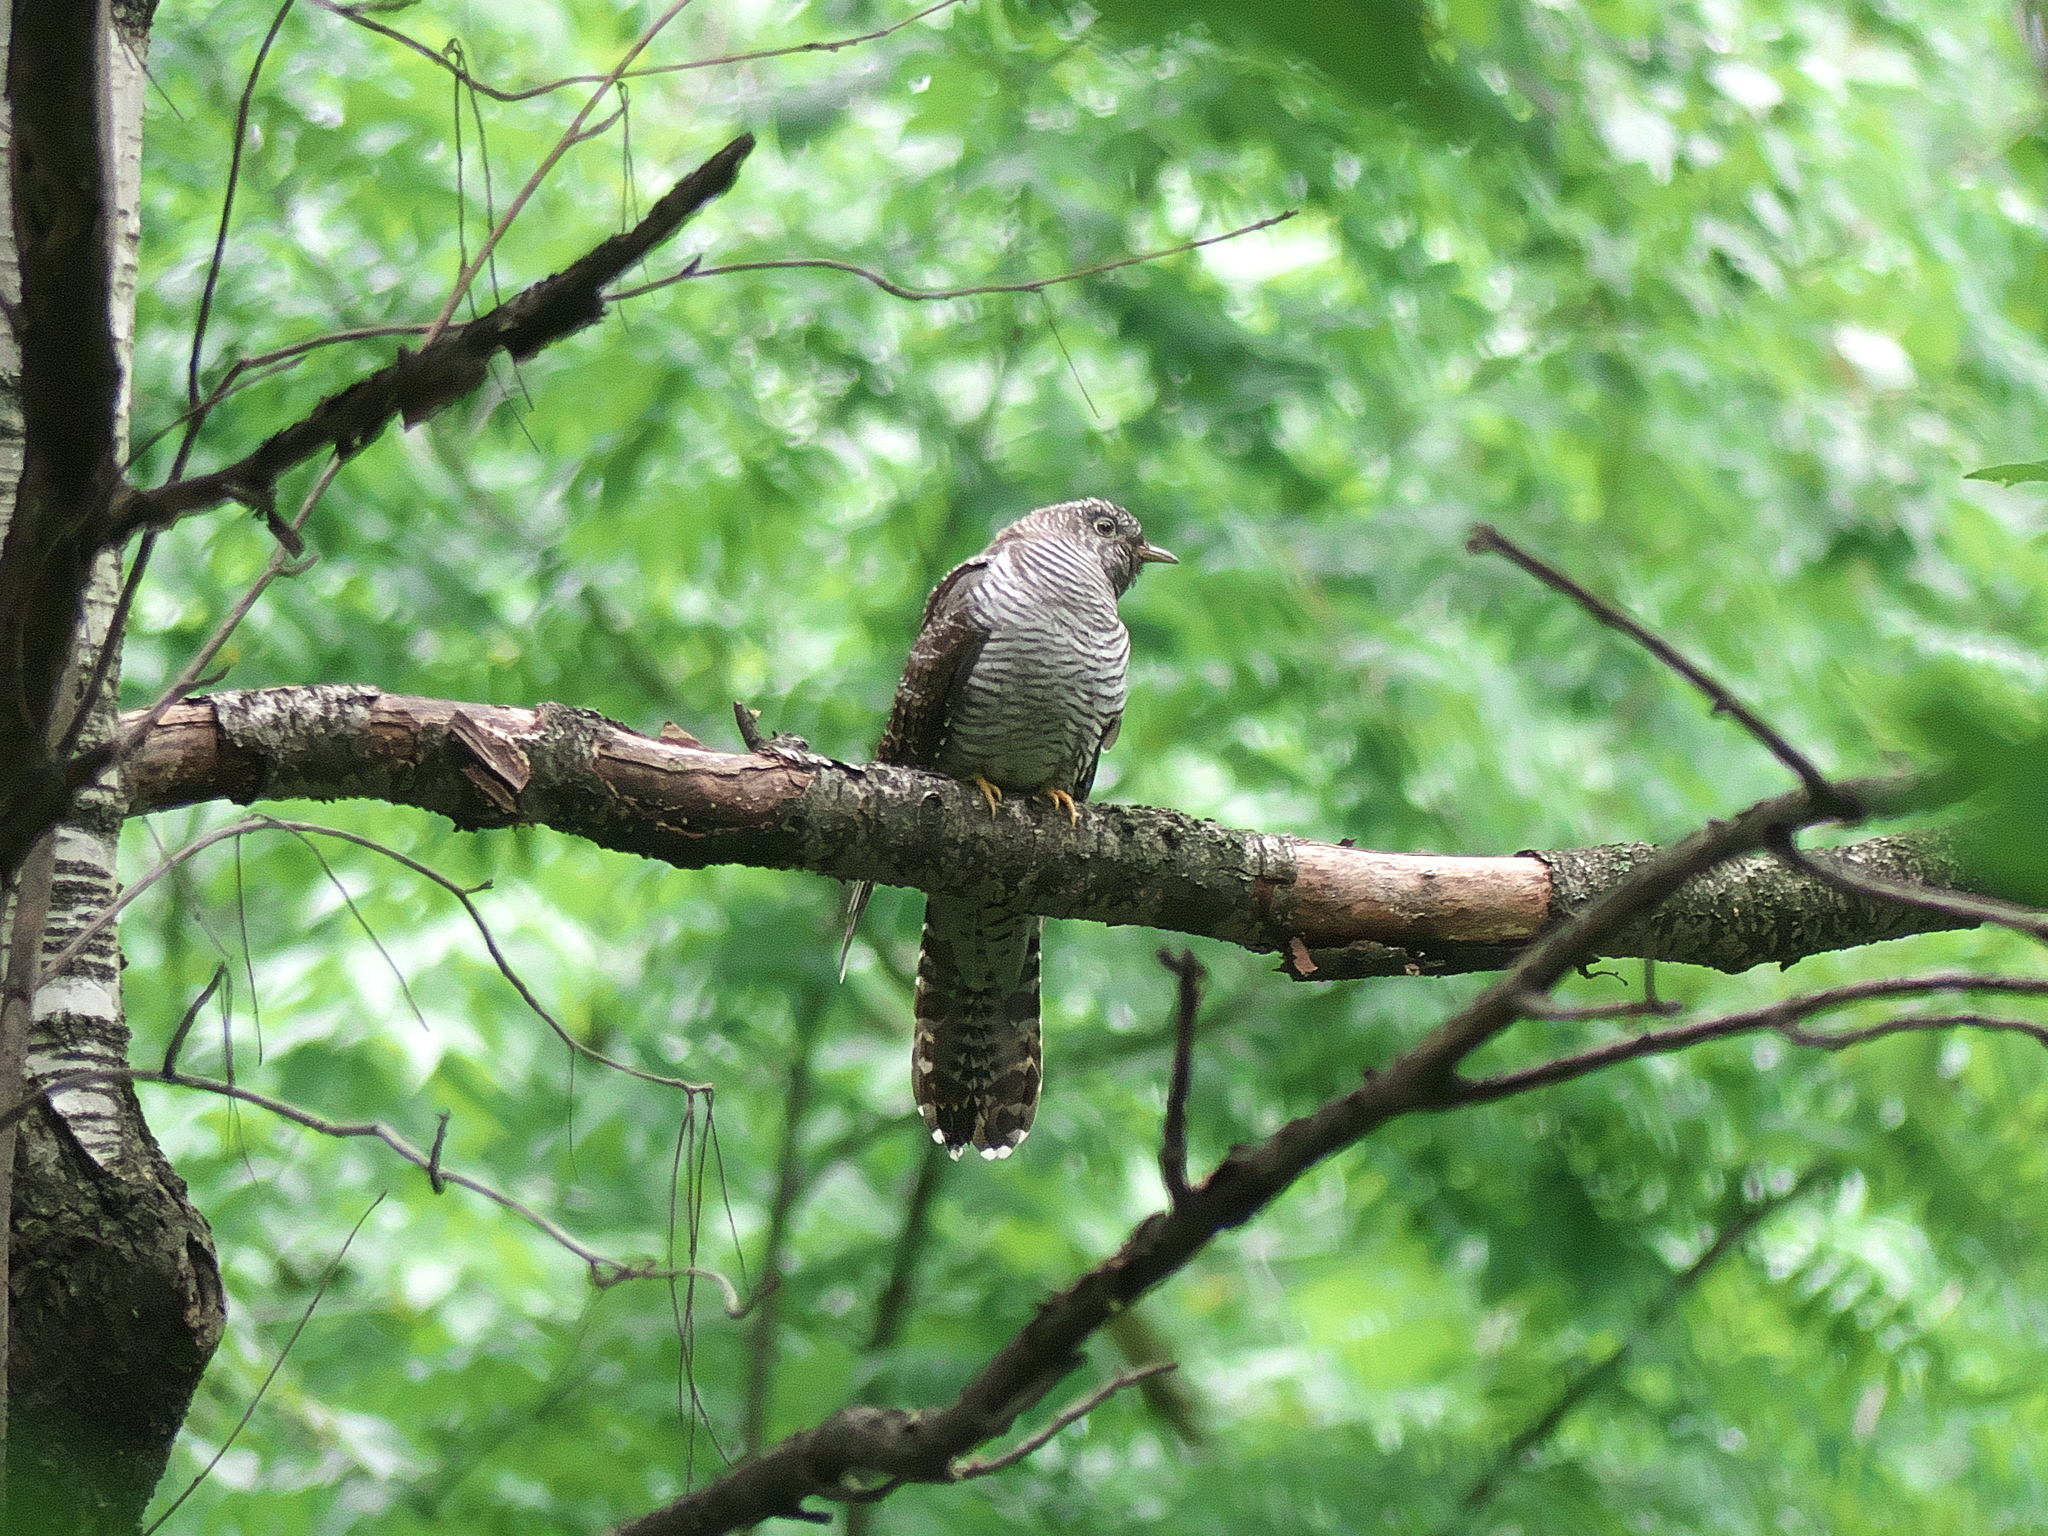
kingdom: Animalia
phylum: Chordata
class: Aves
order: Cuculiformes
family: Cuculidae
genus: Cuculus
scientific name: Cuculus canorus
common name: Common cuckoo
